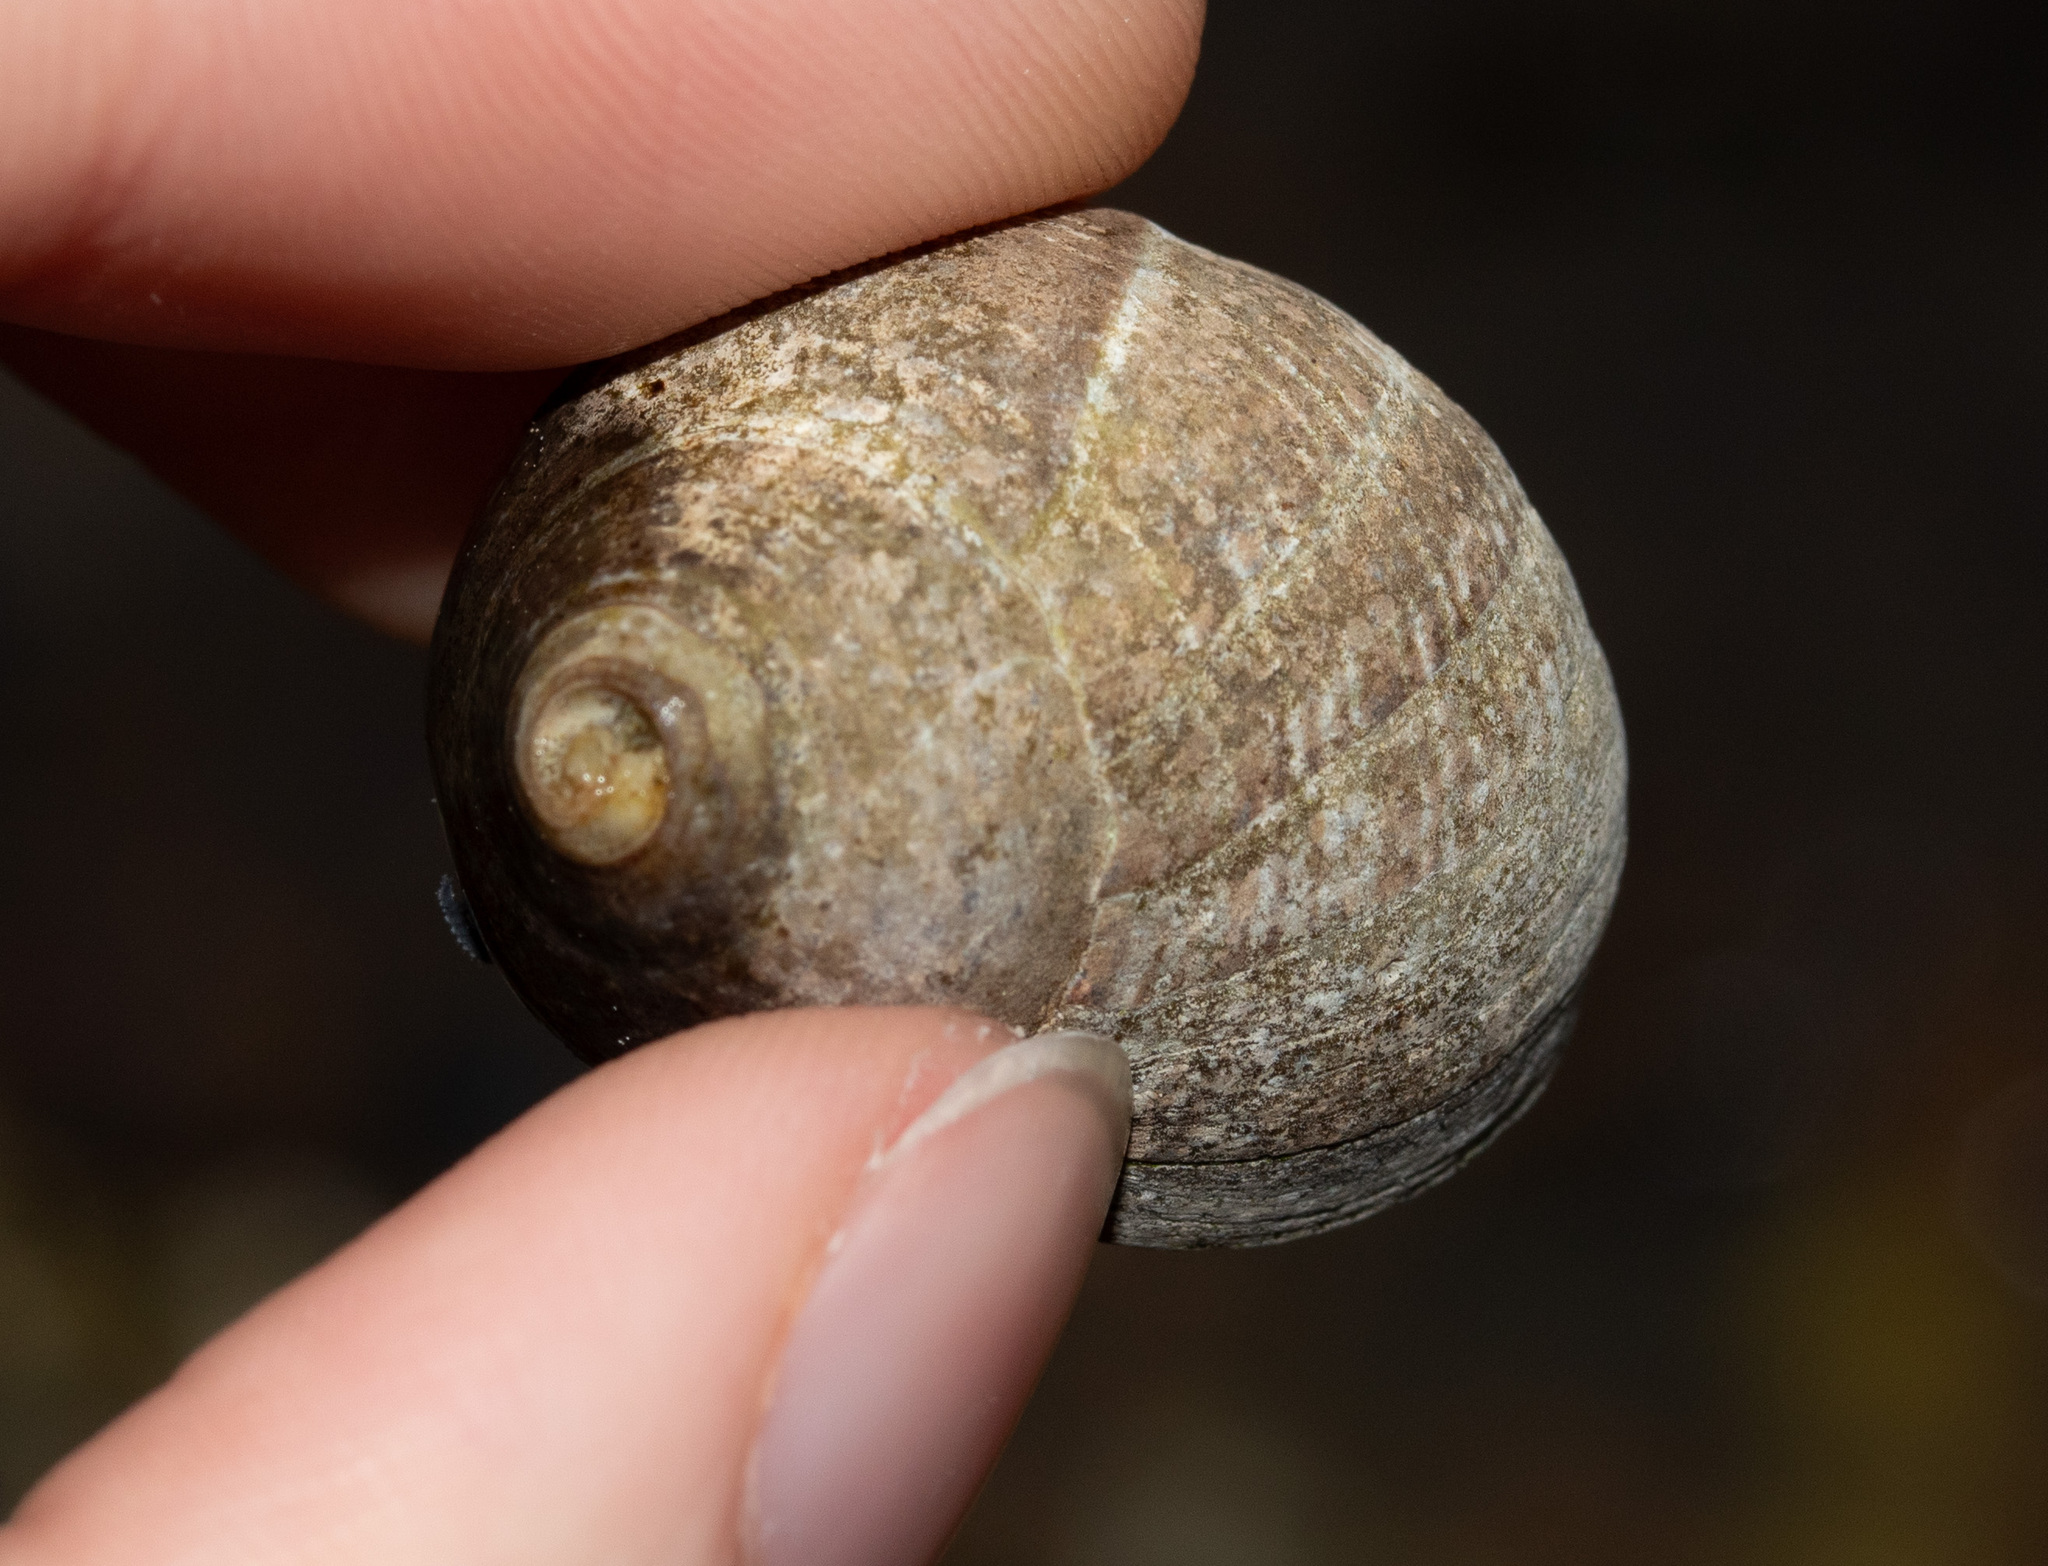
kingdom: Animalia
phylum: Mollusca
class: Gastropoda
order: Littorinimorpha
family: Littorinidae
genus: Littorina
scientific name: Littorina littorea
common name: Common periwinkle
